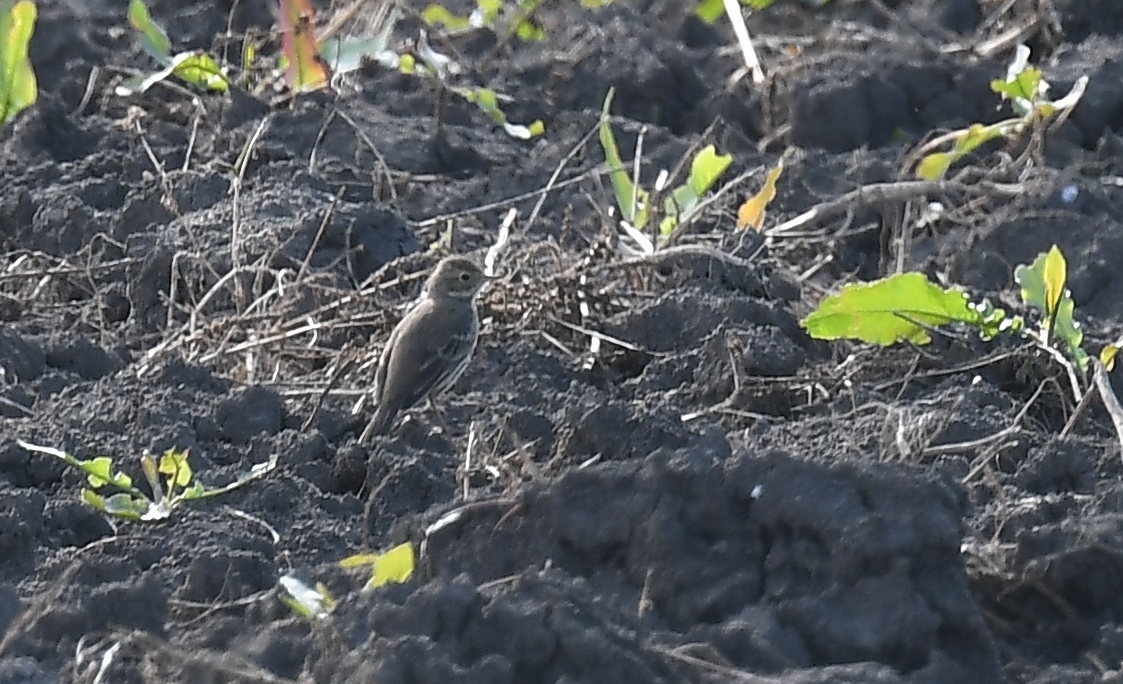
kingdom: Animalia
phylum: Chordata
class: Aves
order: Passeriformes
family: Motacillidae
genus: Anthus
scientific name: Anthus rubescens
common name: Buff-bellied pipit
